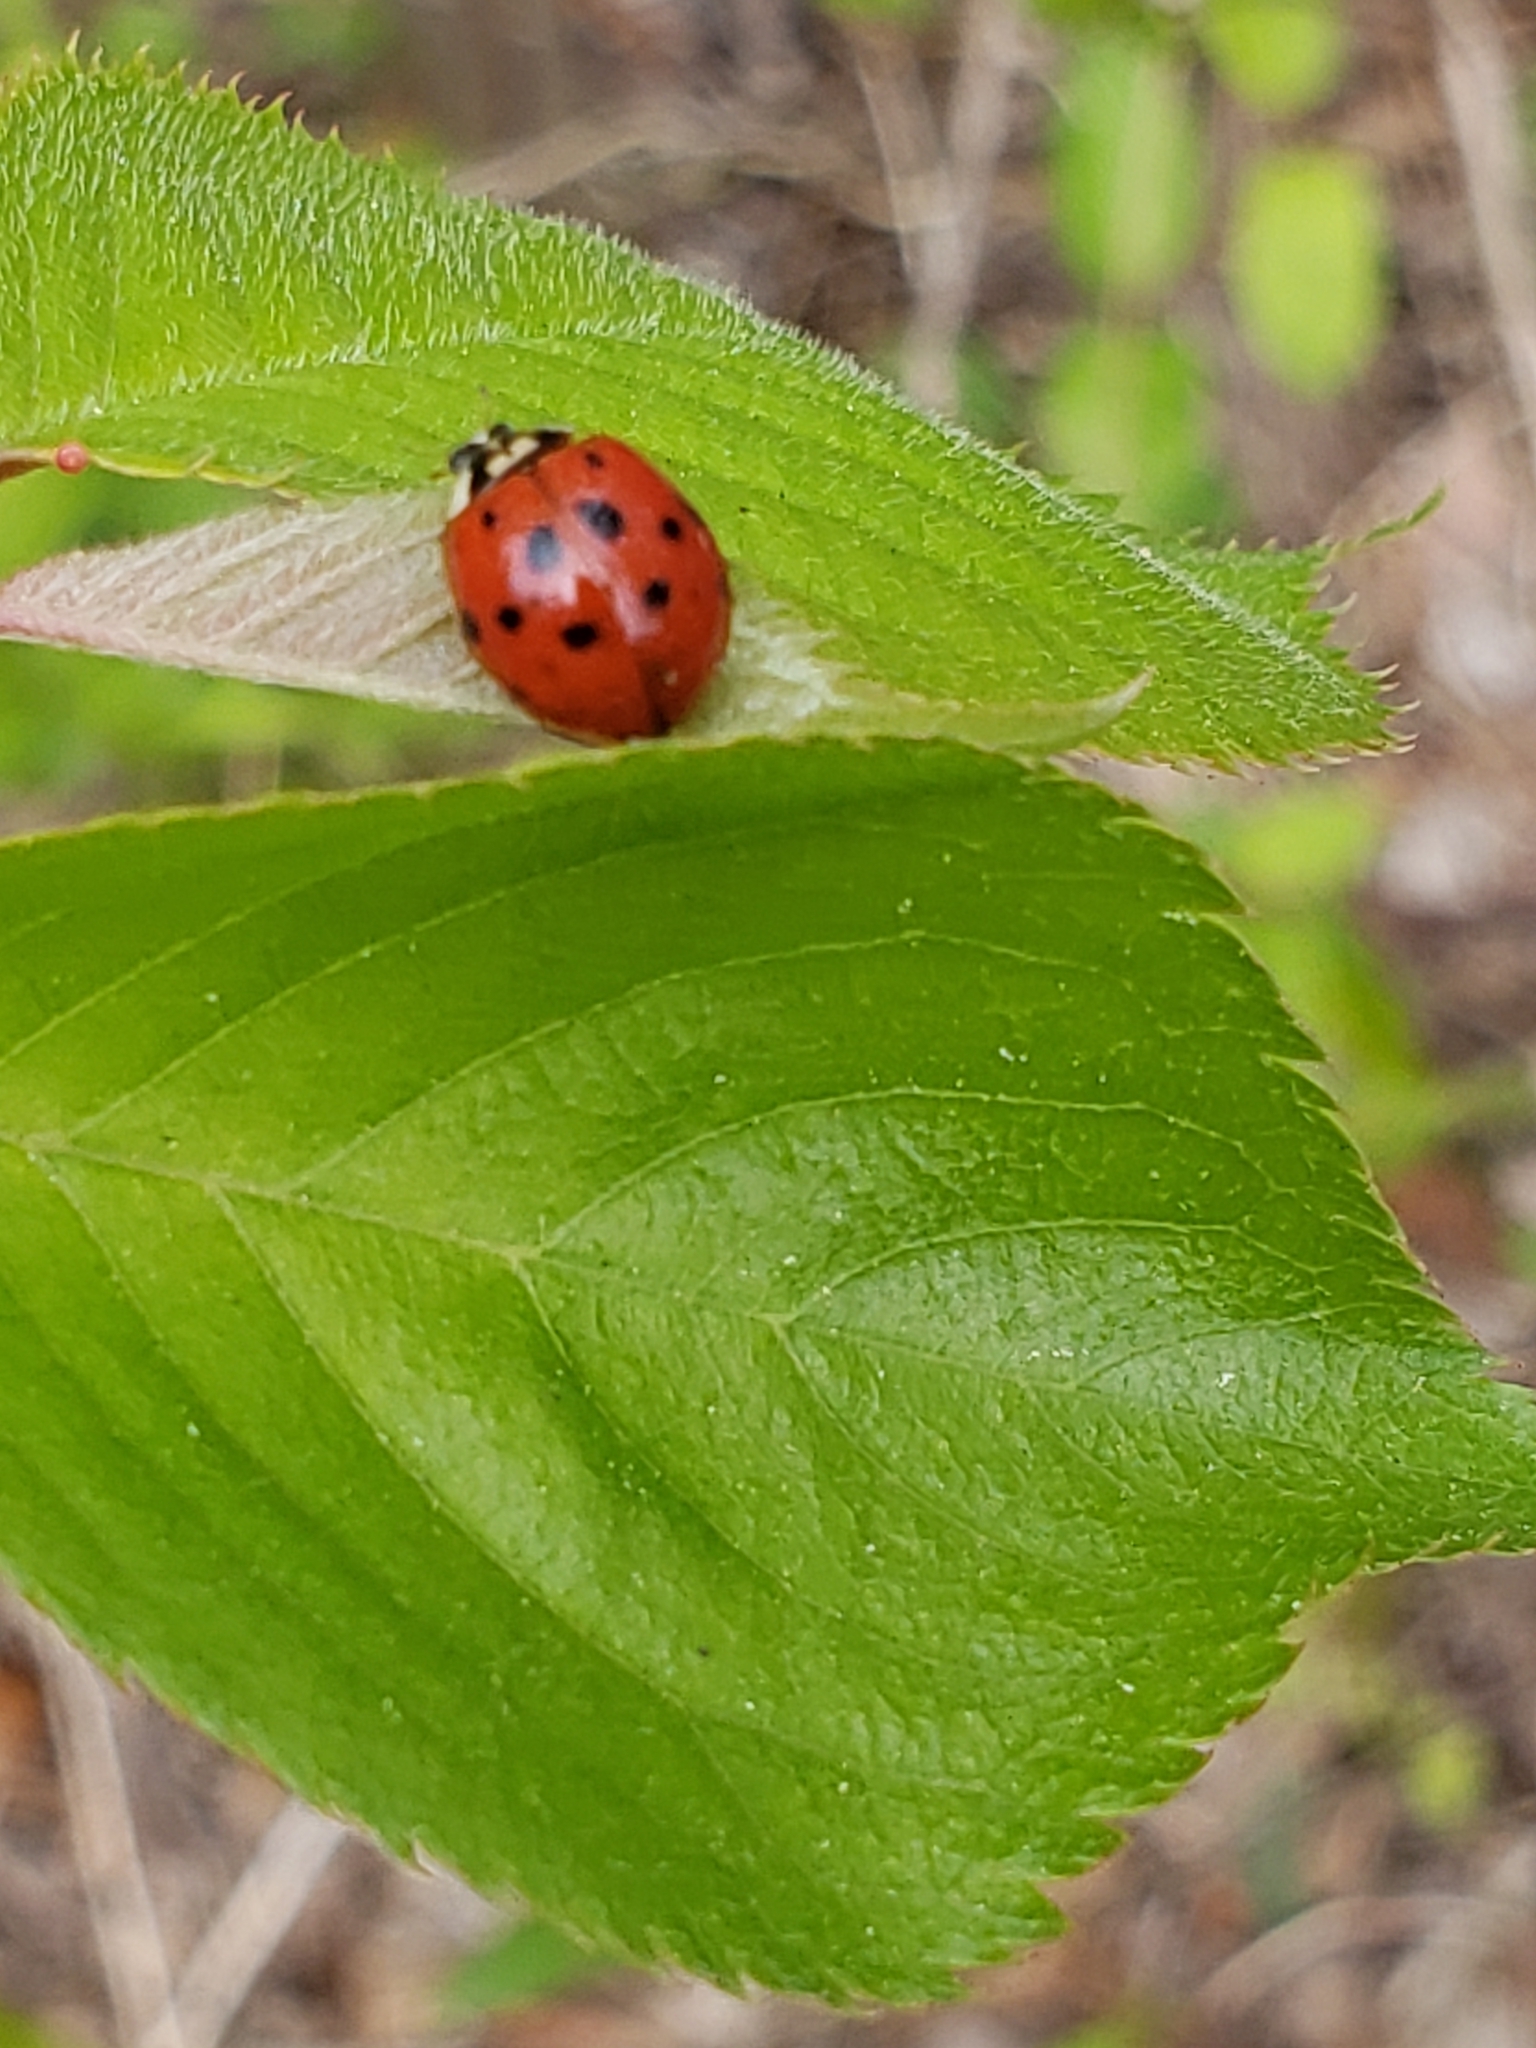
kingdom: Animalia
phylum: Arthropoda
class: Insecta
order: Coleoptera
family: Coccinellidae
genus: Harmonia
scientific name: Harmonia axyridis
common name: Harlequin ladybird
